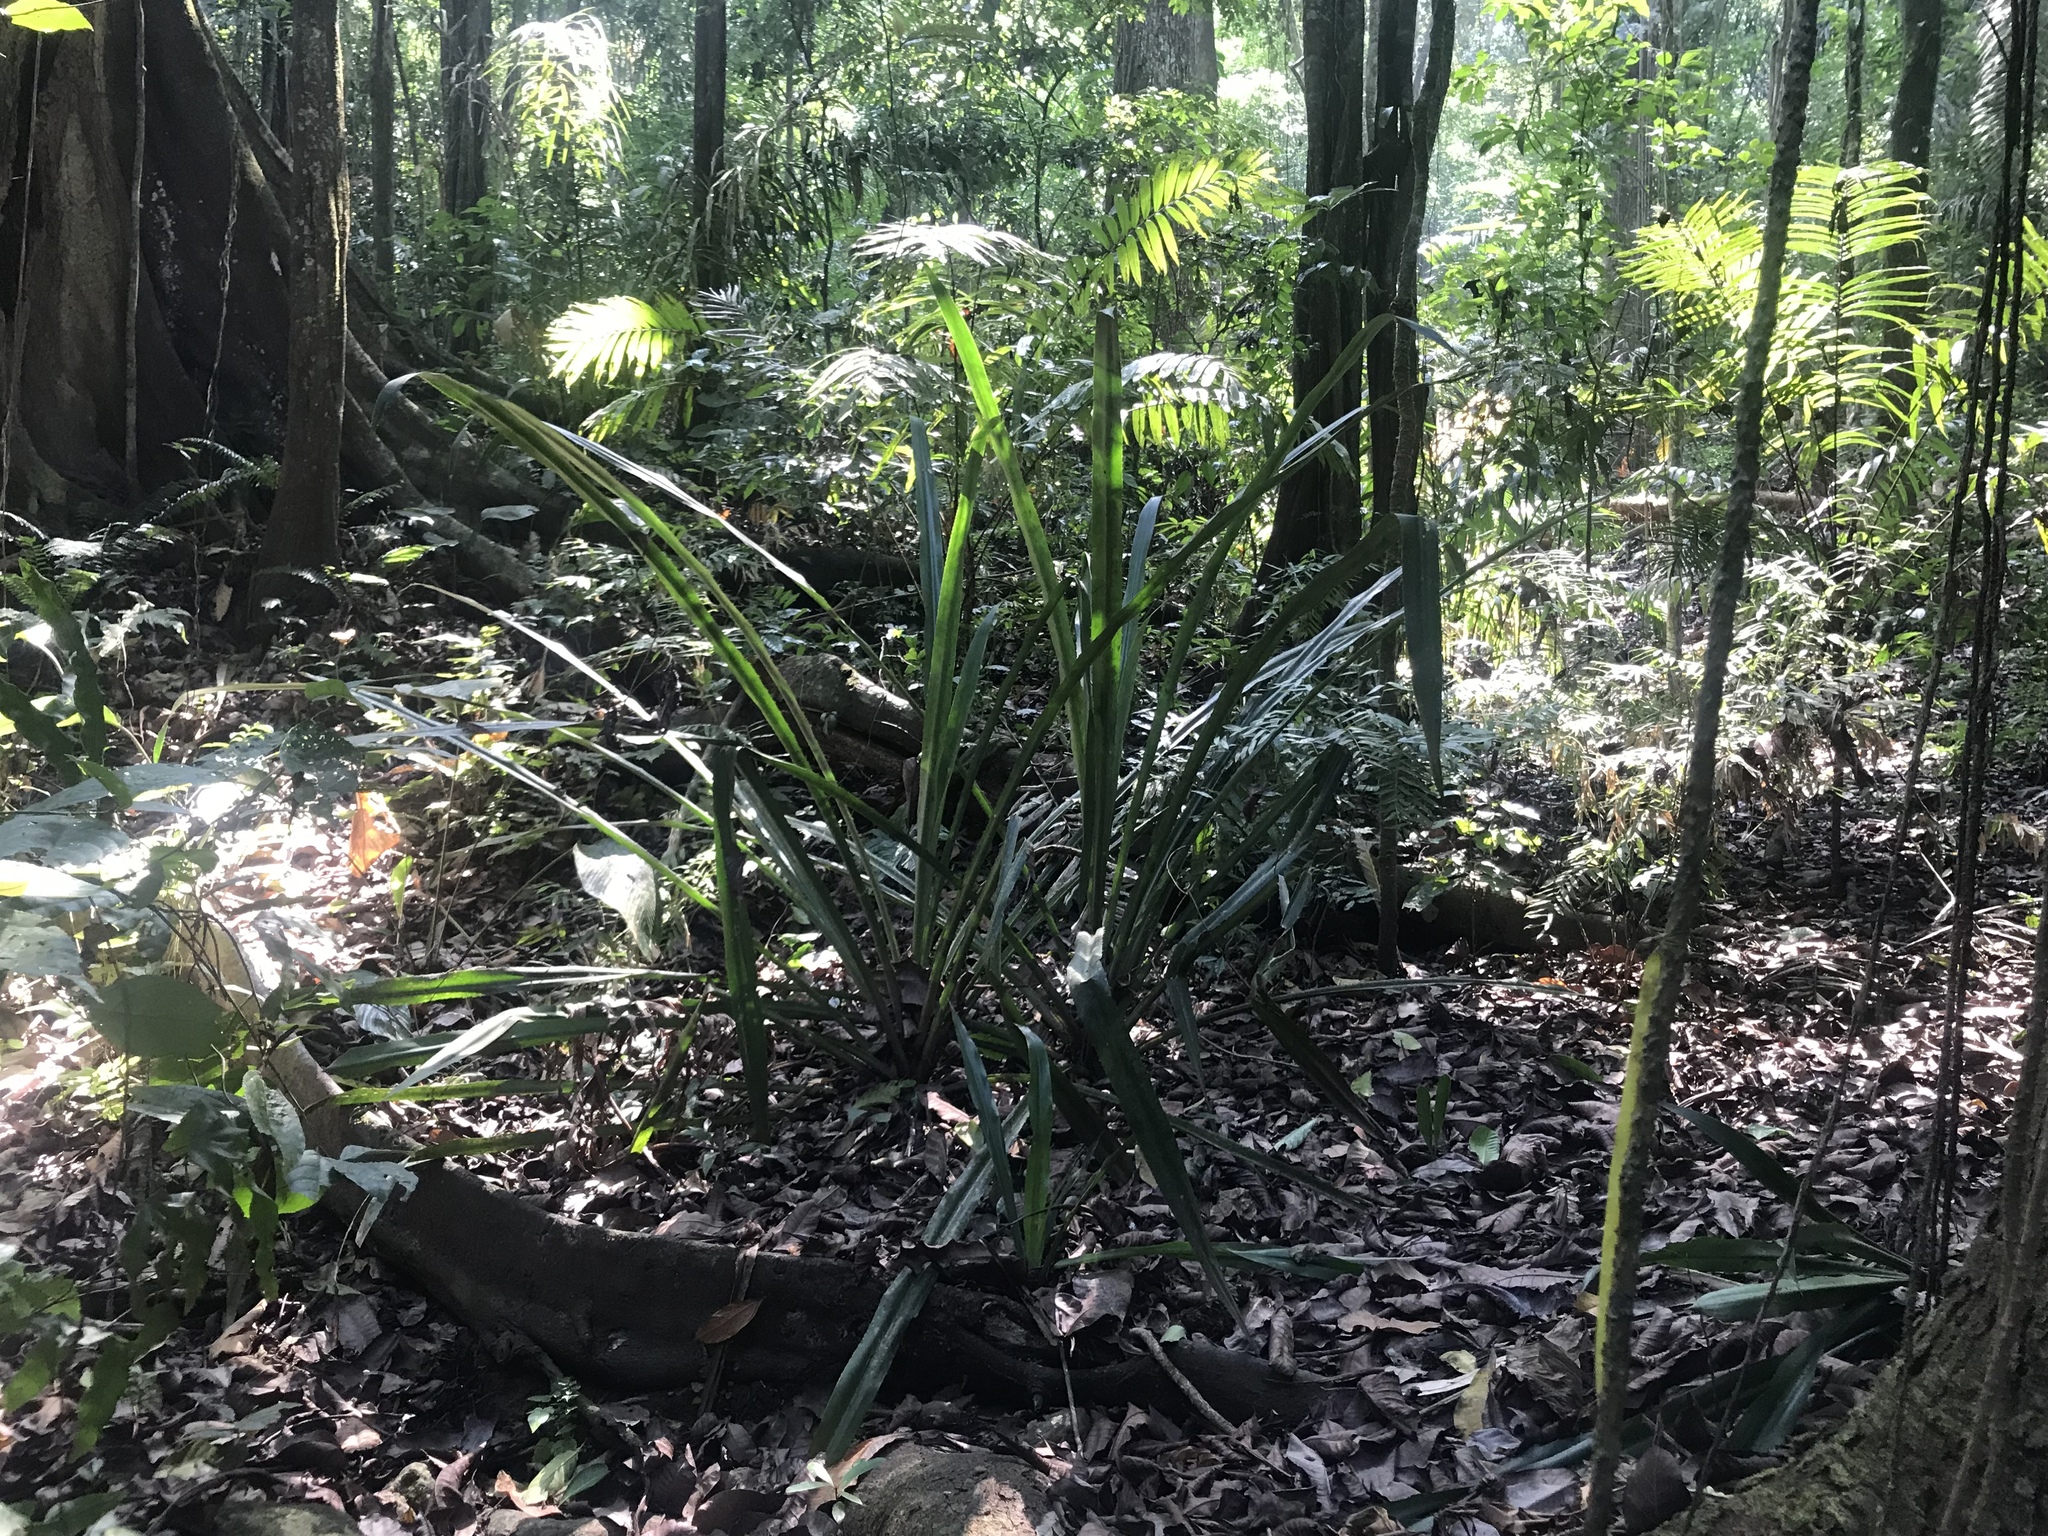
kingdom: Plantae
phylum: Tracheophyta
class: Liliopsida
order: Poales
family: Bromeliaceae
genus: Aechmea
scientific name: Aechmea magdalenae
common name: Arghan
